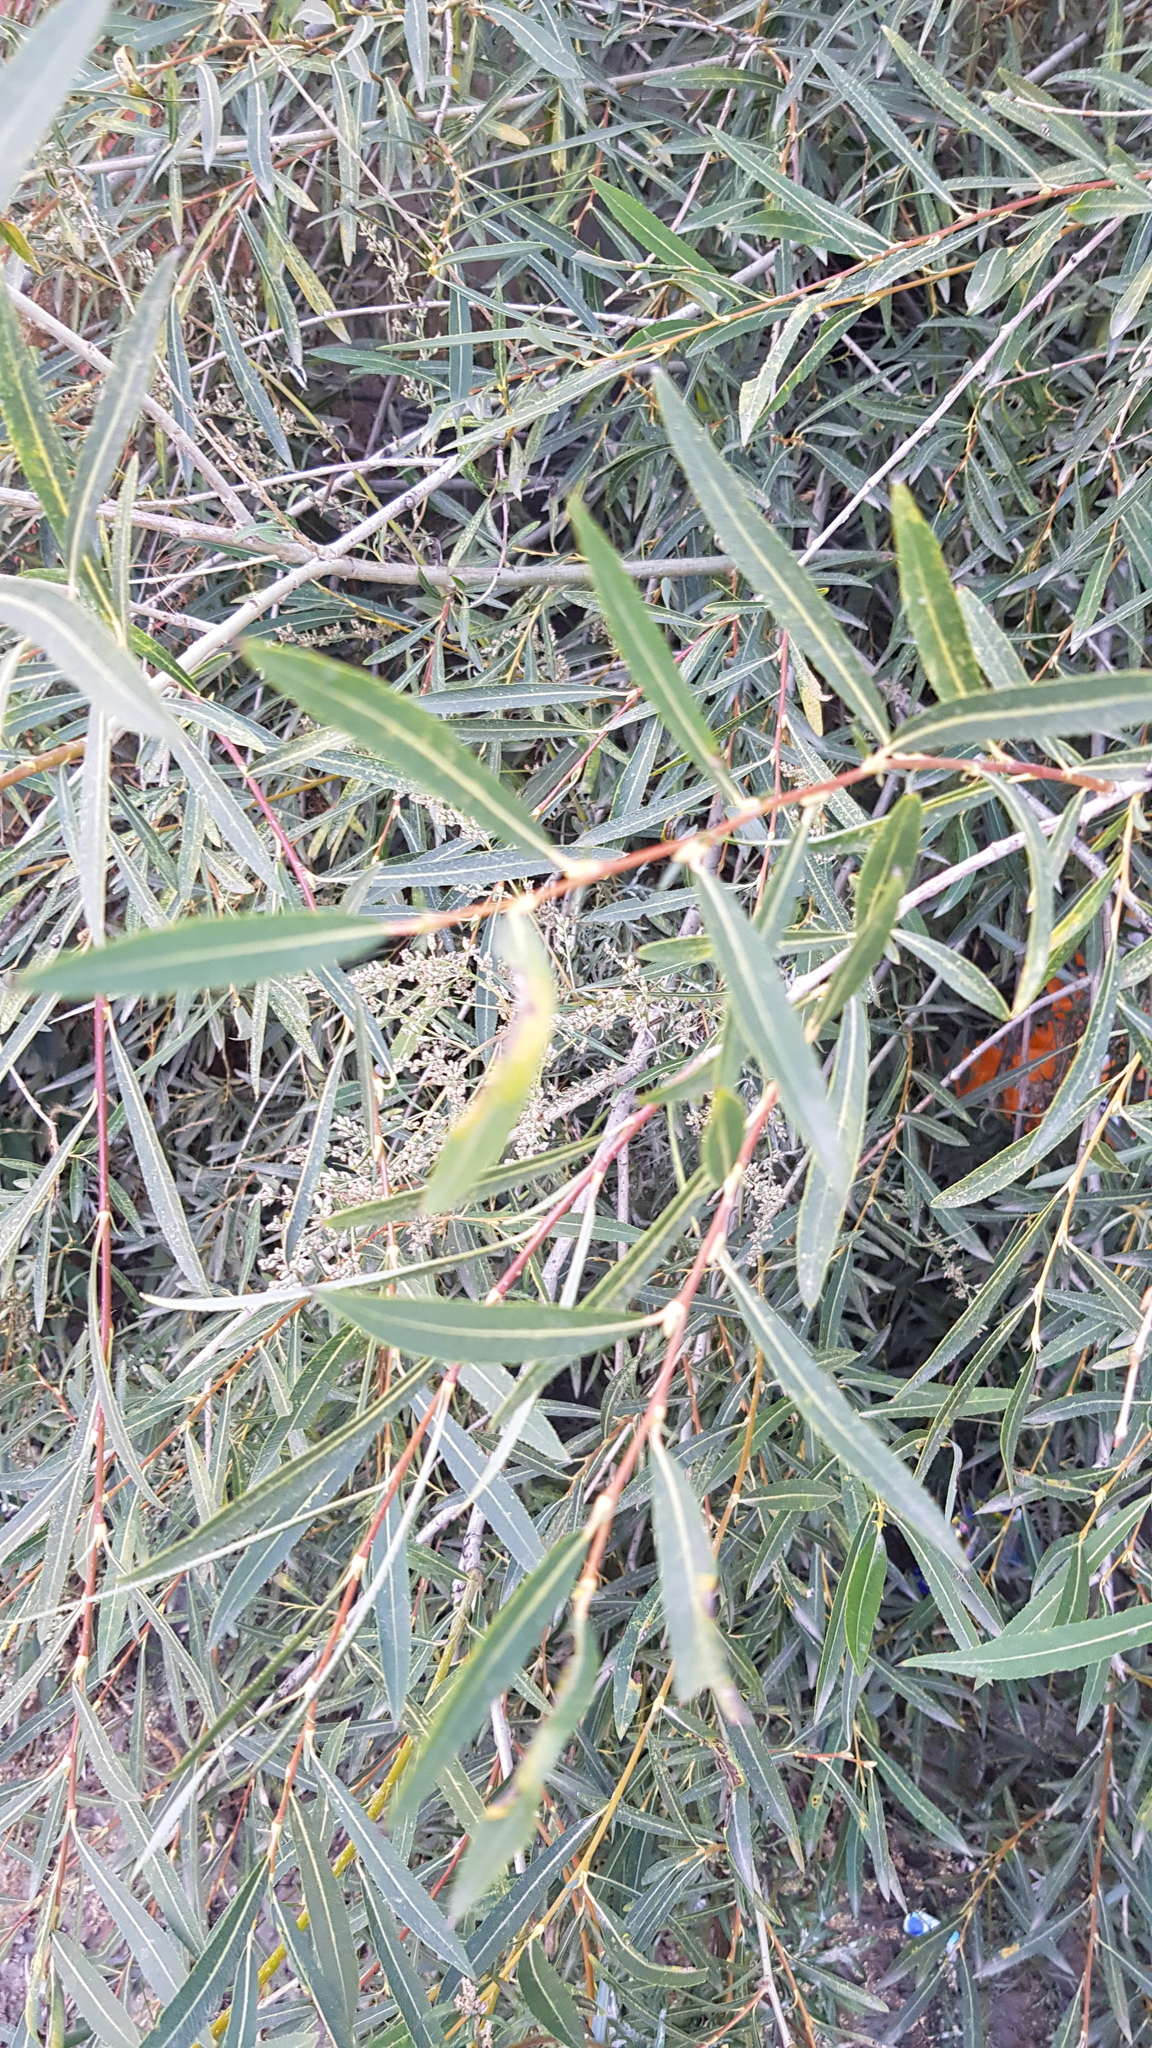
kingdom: Plantae
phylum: Tracheophyta
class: Magnoliopsida
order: Malpighiales
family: Salicaceae
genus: Salix
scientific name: Salix viminalis
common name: Osier
